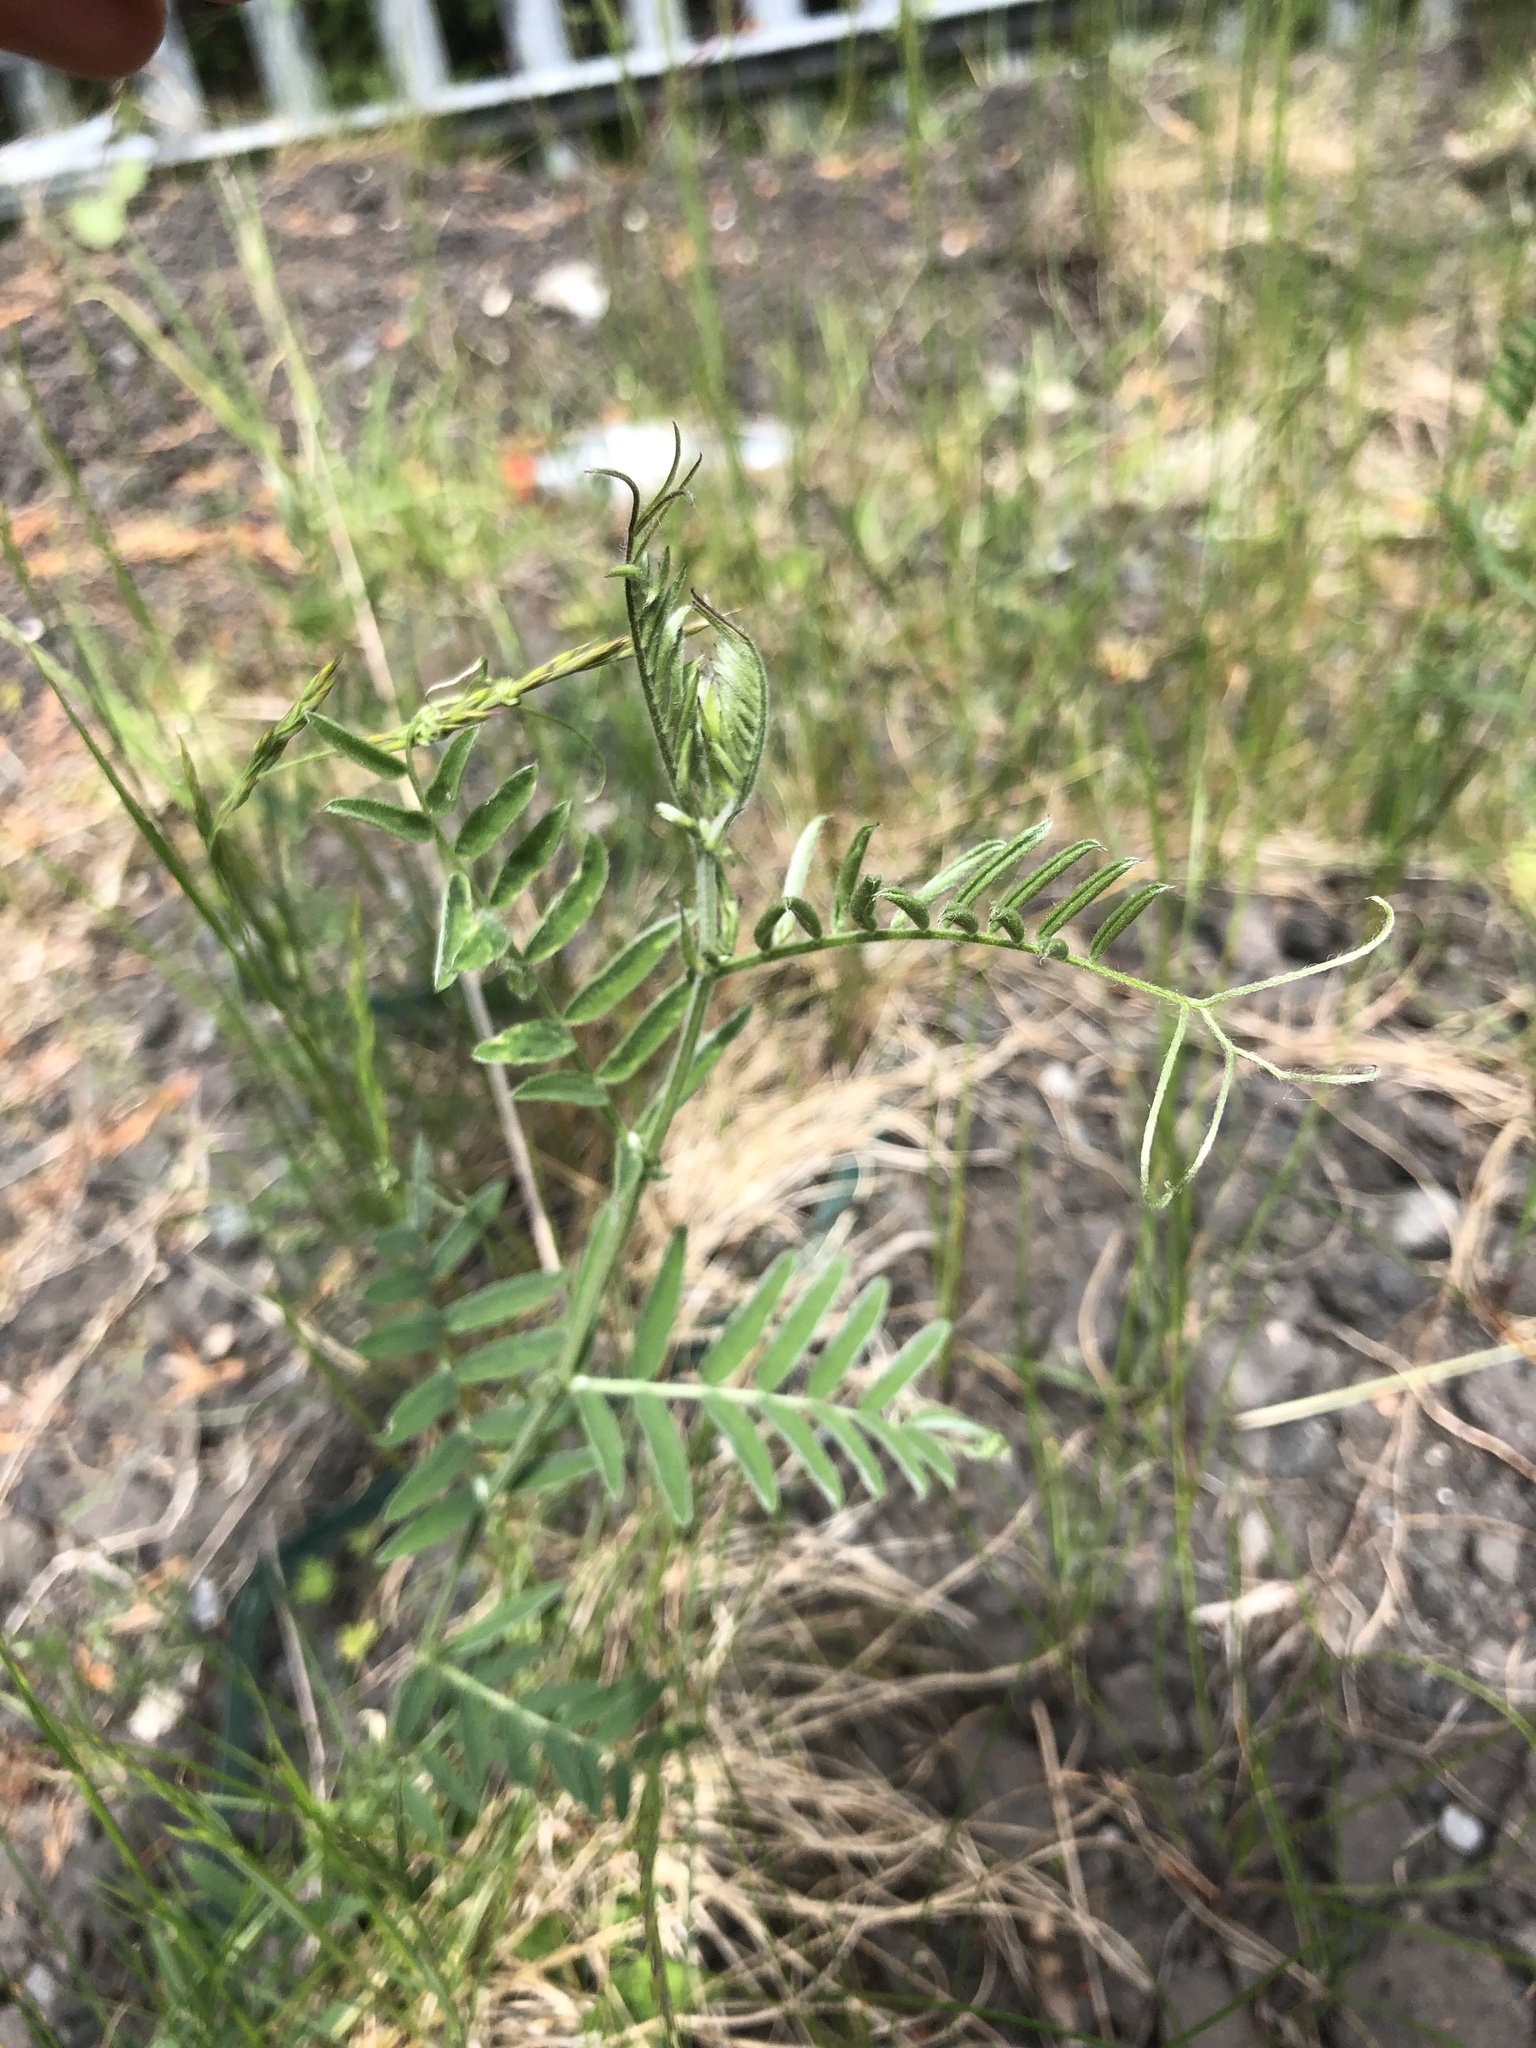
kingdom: Plantae
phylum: Tracheophyta
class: Magnoliopsida
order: Fabales
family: Fabaceae
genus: Vicia
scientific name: Vicia cracca
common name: Bird vetch
